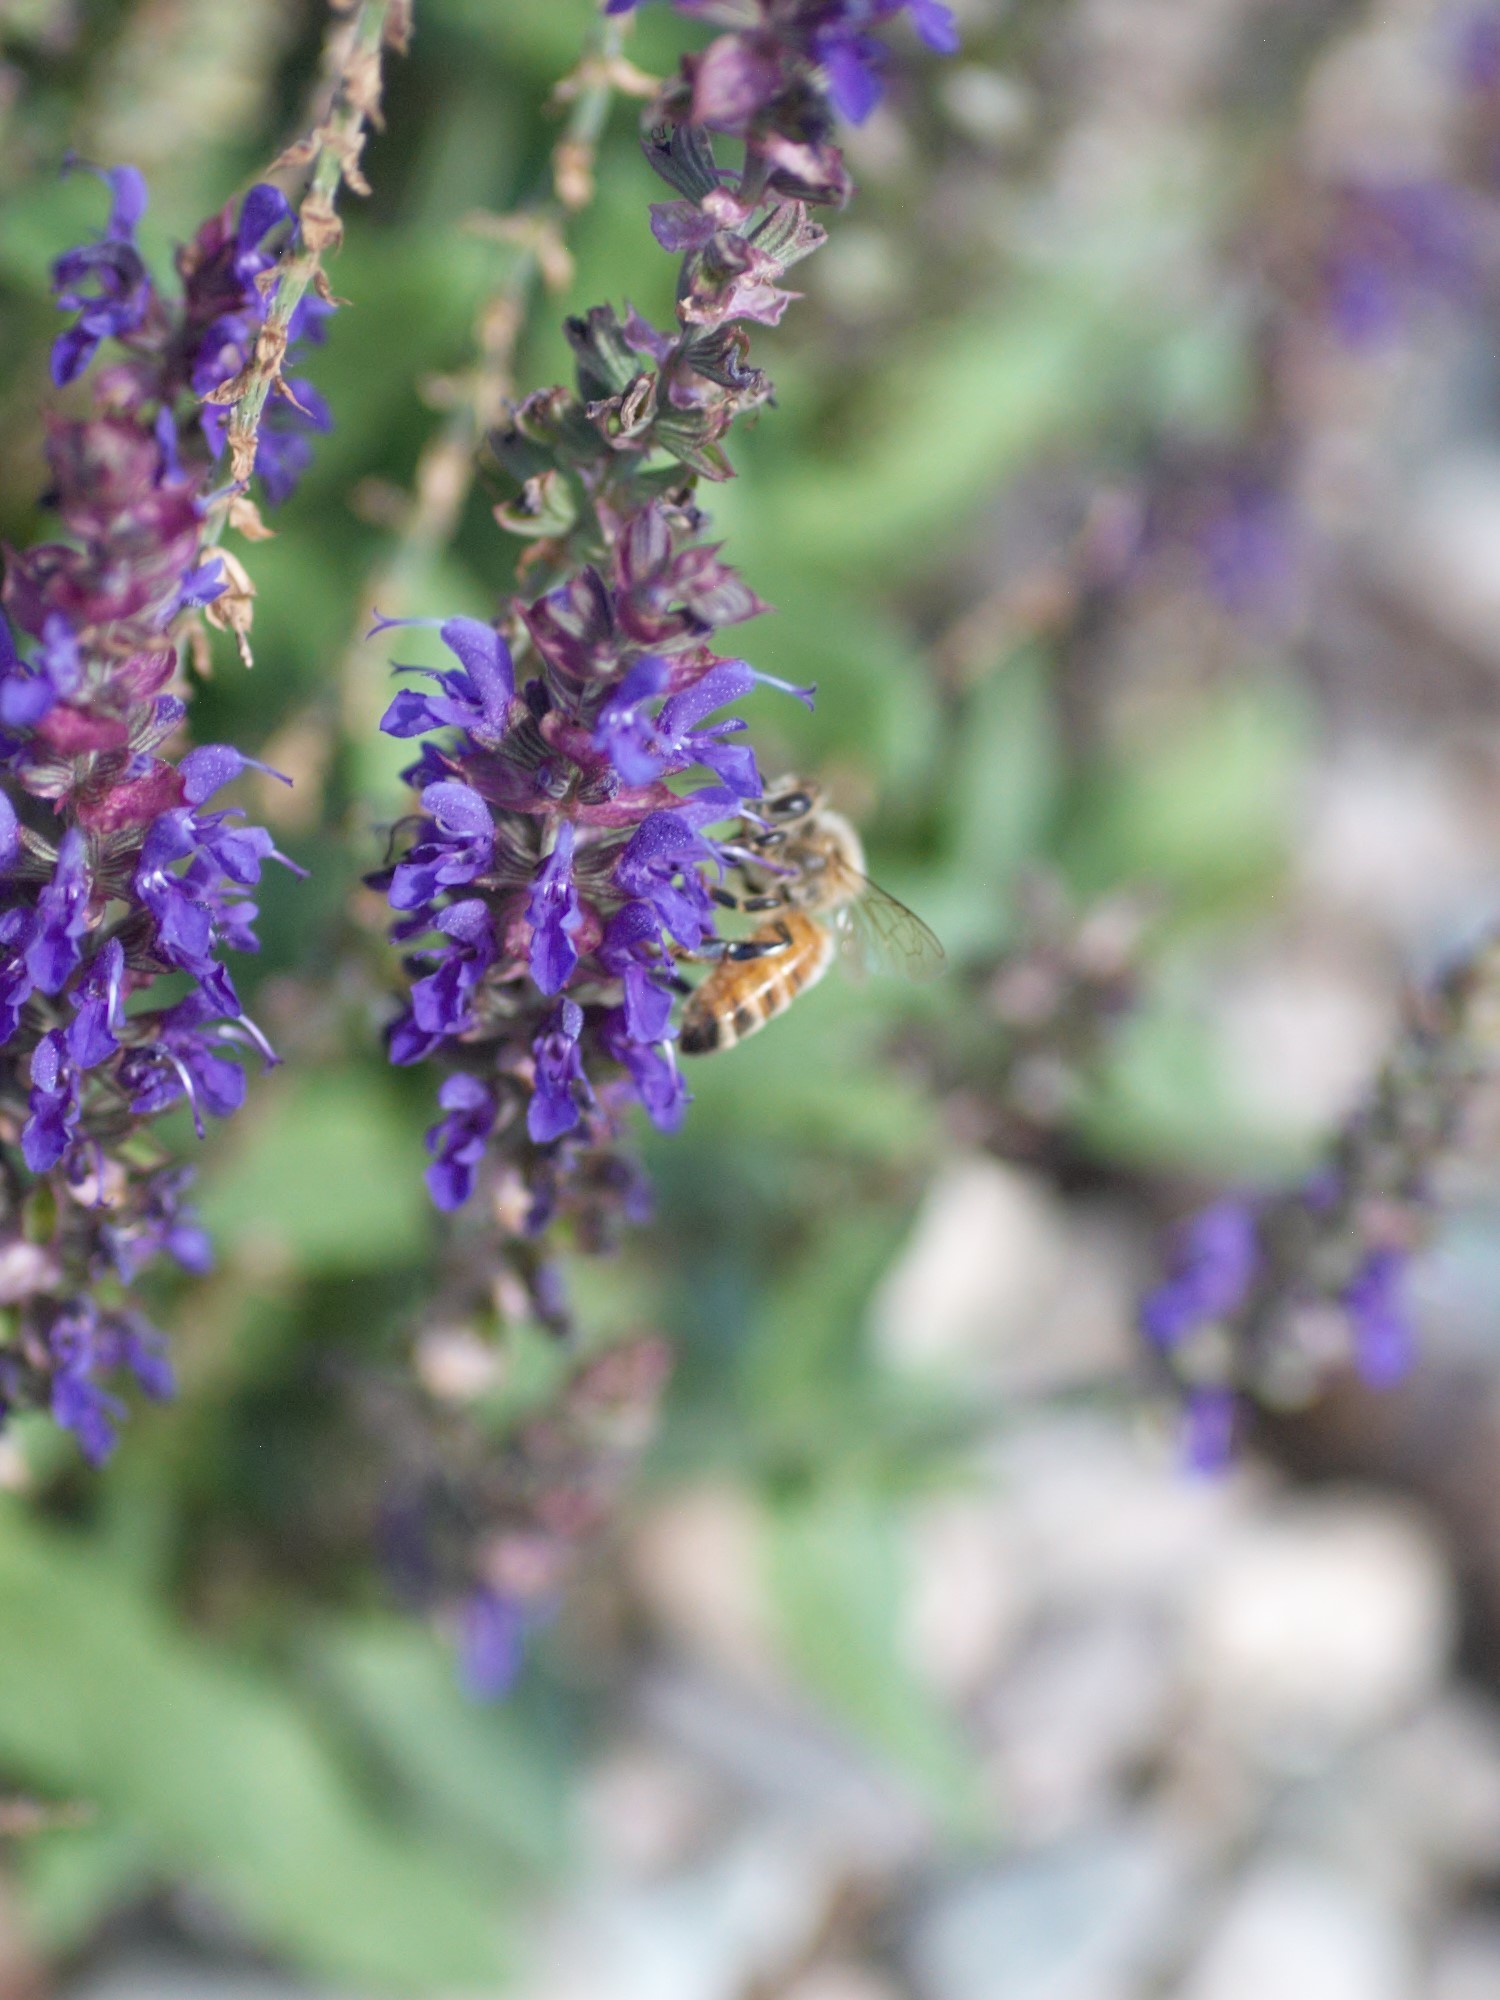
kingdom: Animalia
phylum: Arthropoda
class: Insecta
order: Hymenoptera
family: Apidae
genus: Apis
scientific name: Apis mellifera
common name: Honey bee
